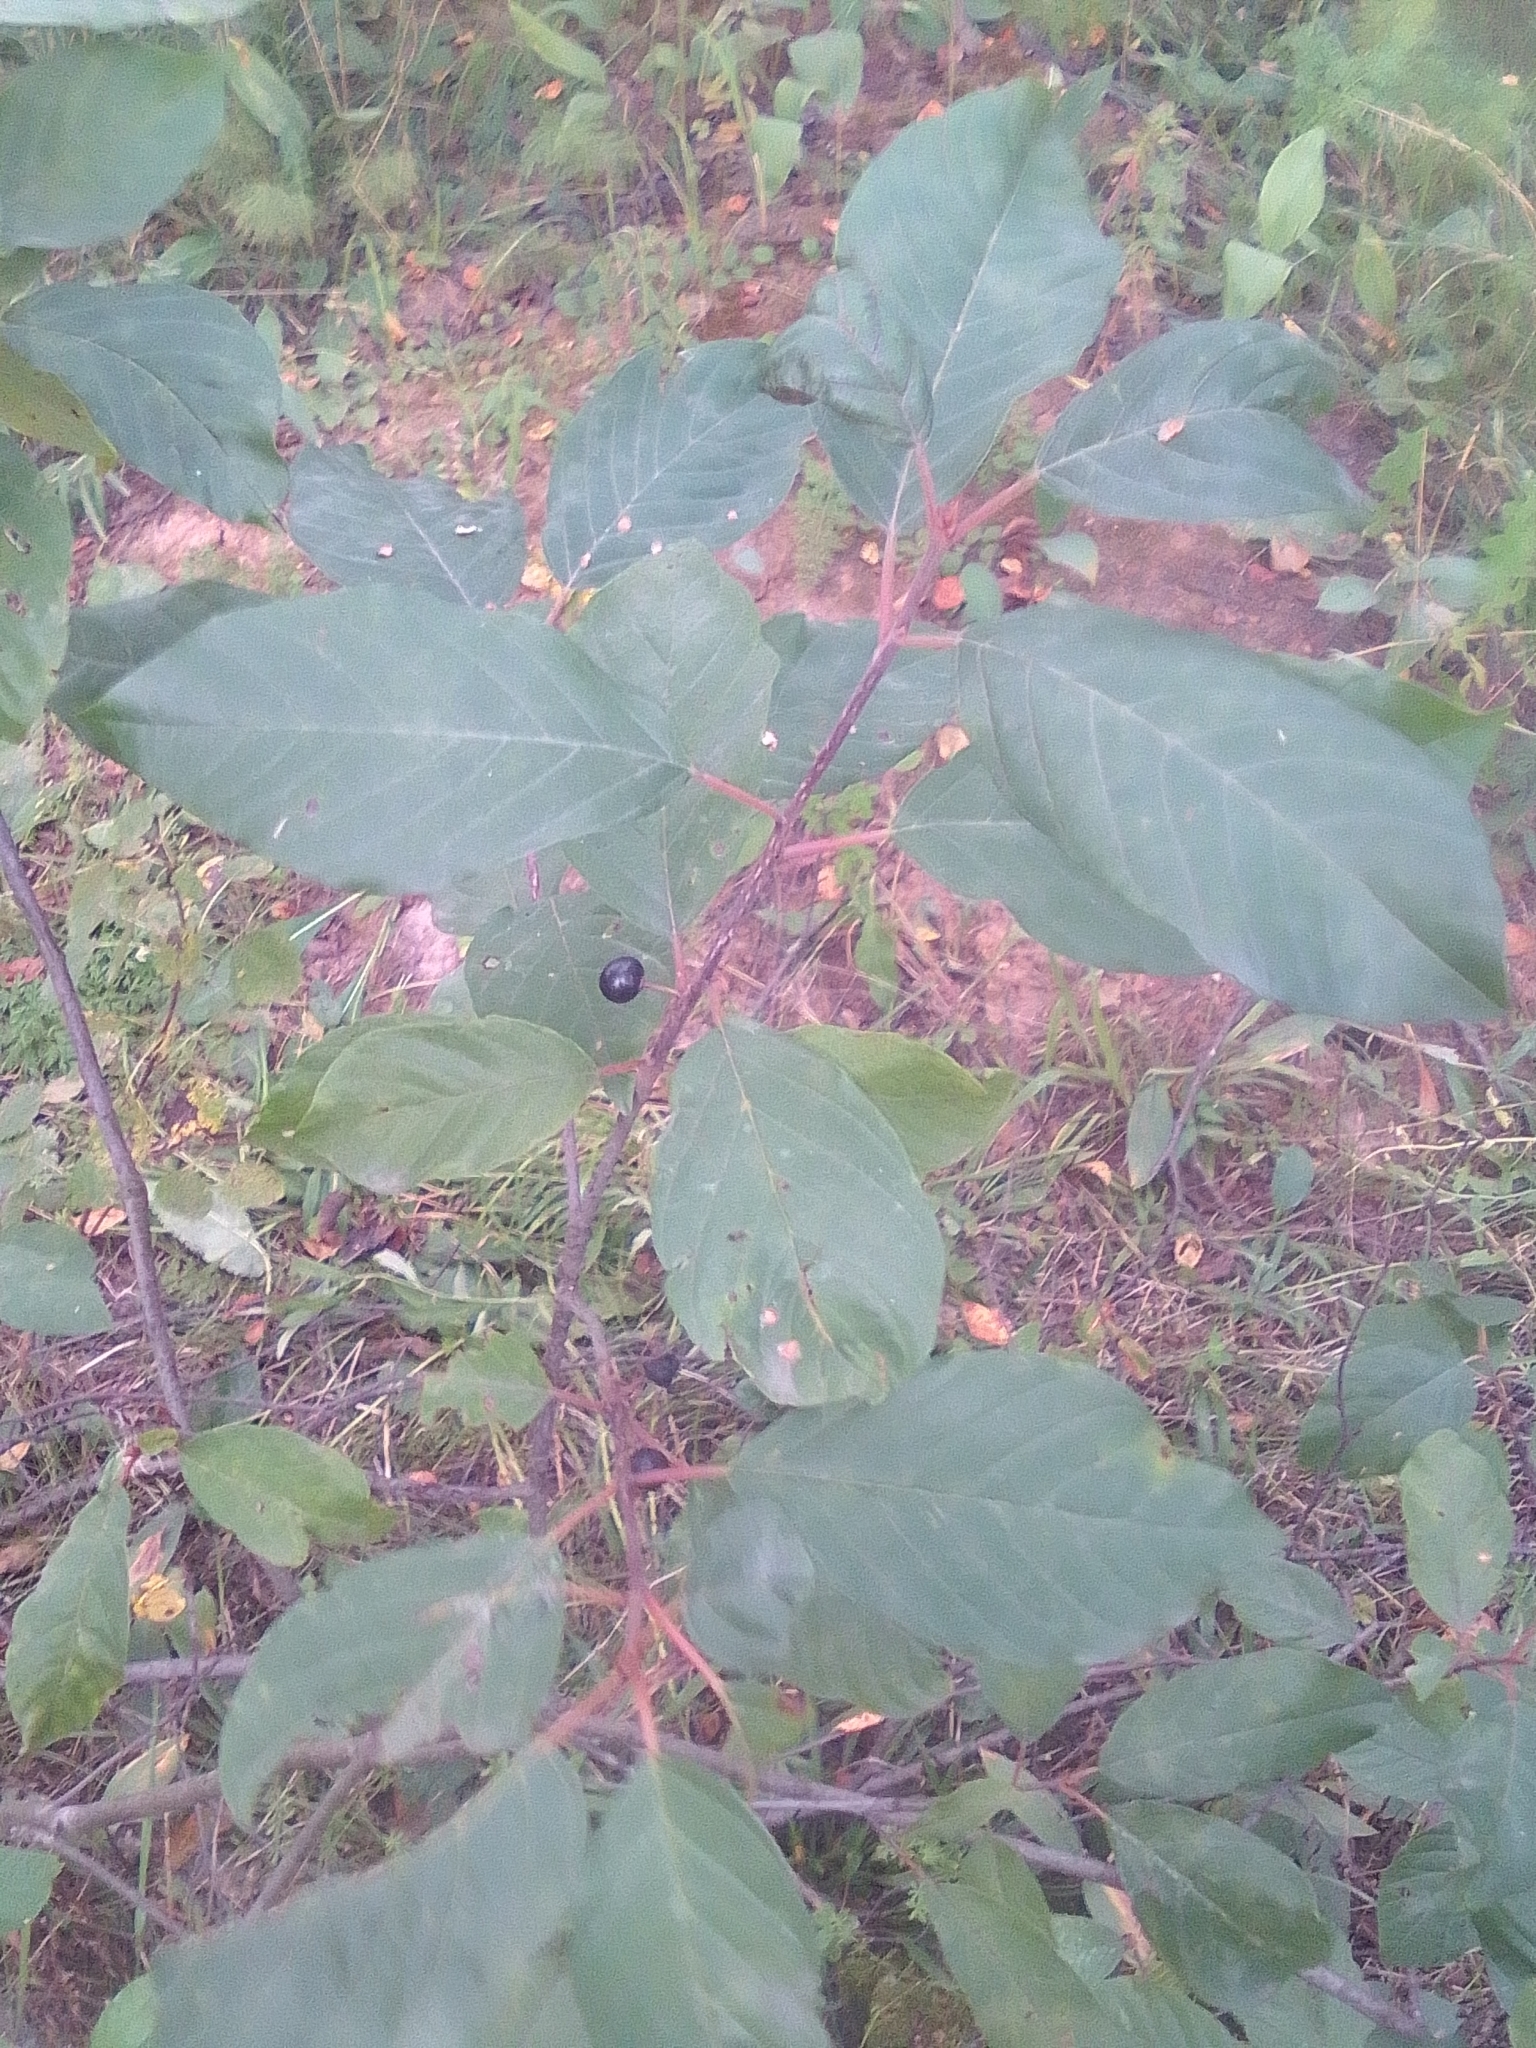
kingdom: Plantae
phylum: Tracheophyta
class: Magnoliopsida
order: Rosales
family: Rhamnaceae
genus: Frangula
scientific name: Frangula alnus
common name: Alder buckthorn
